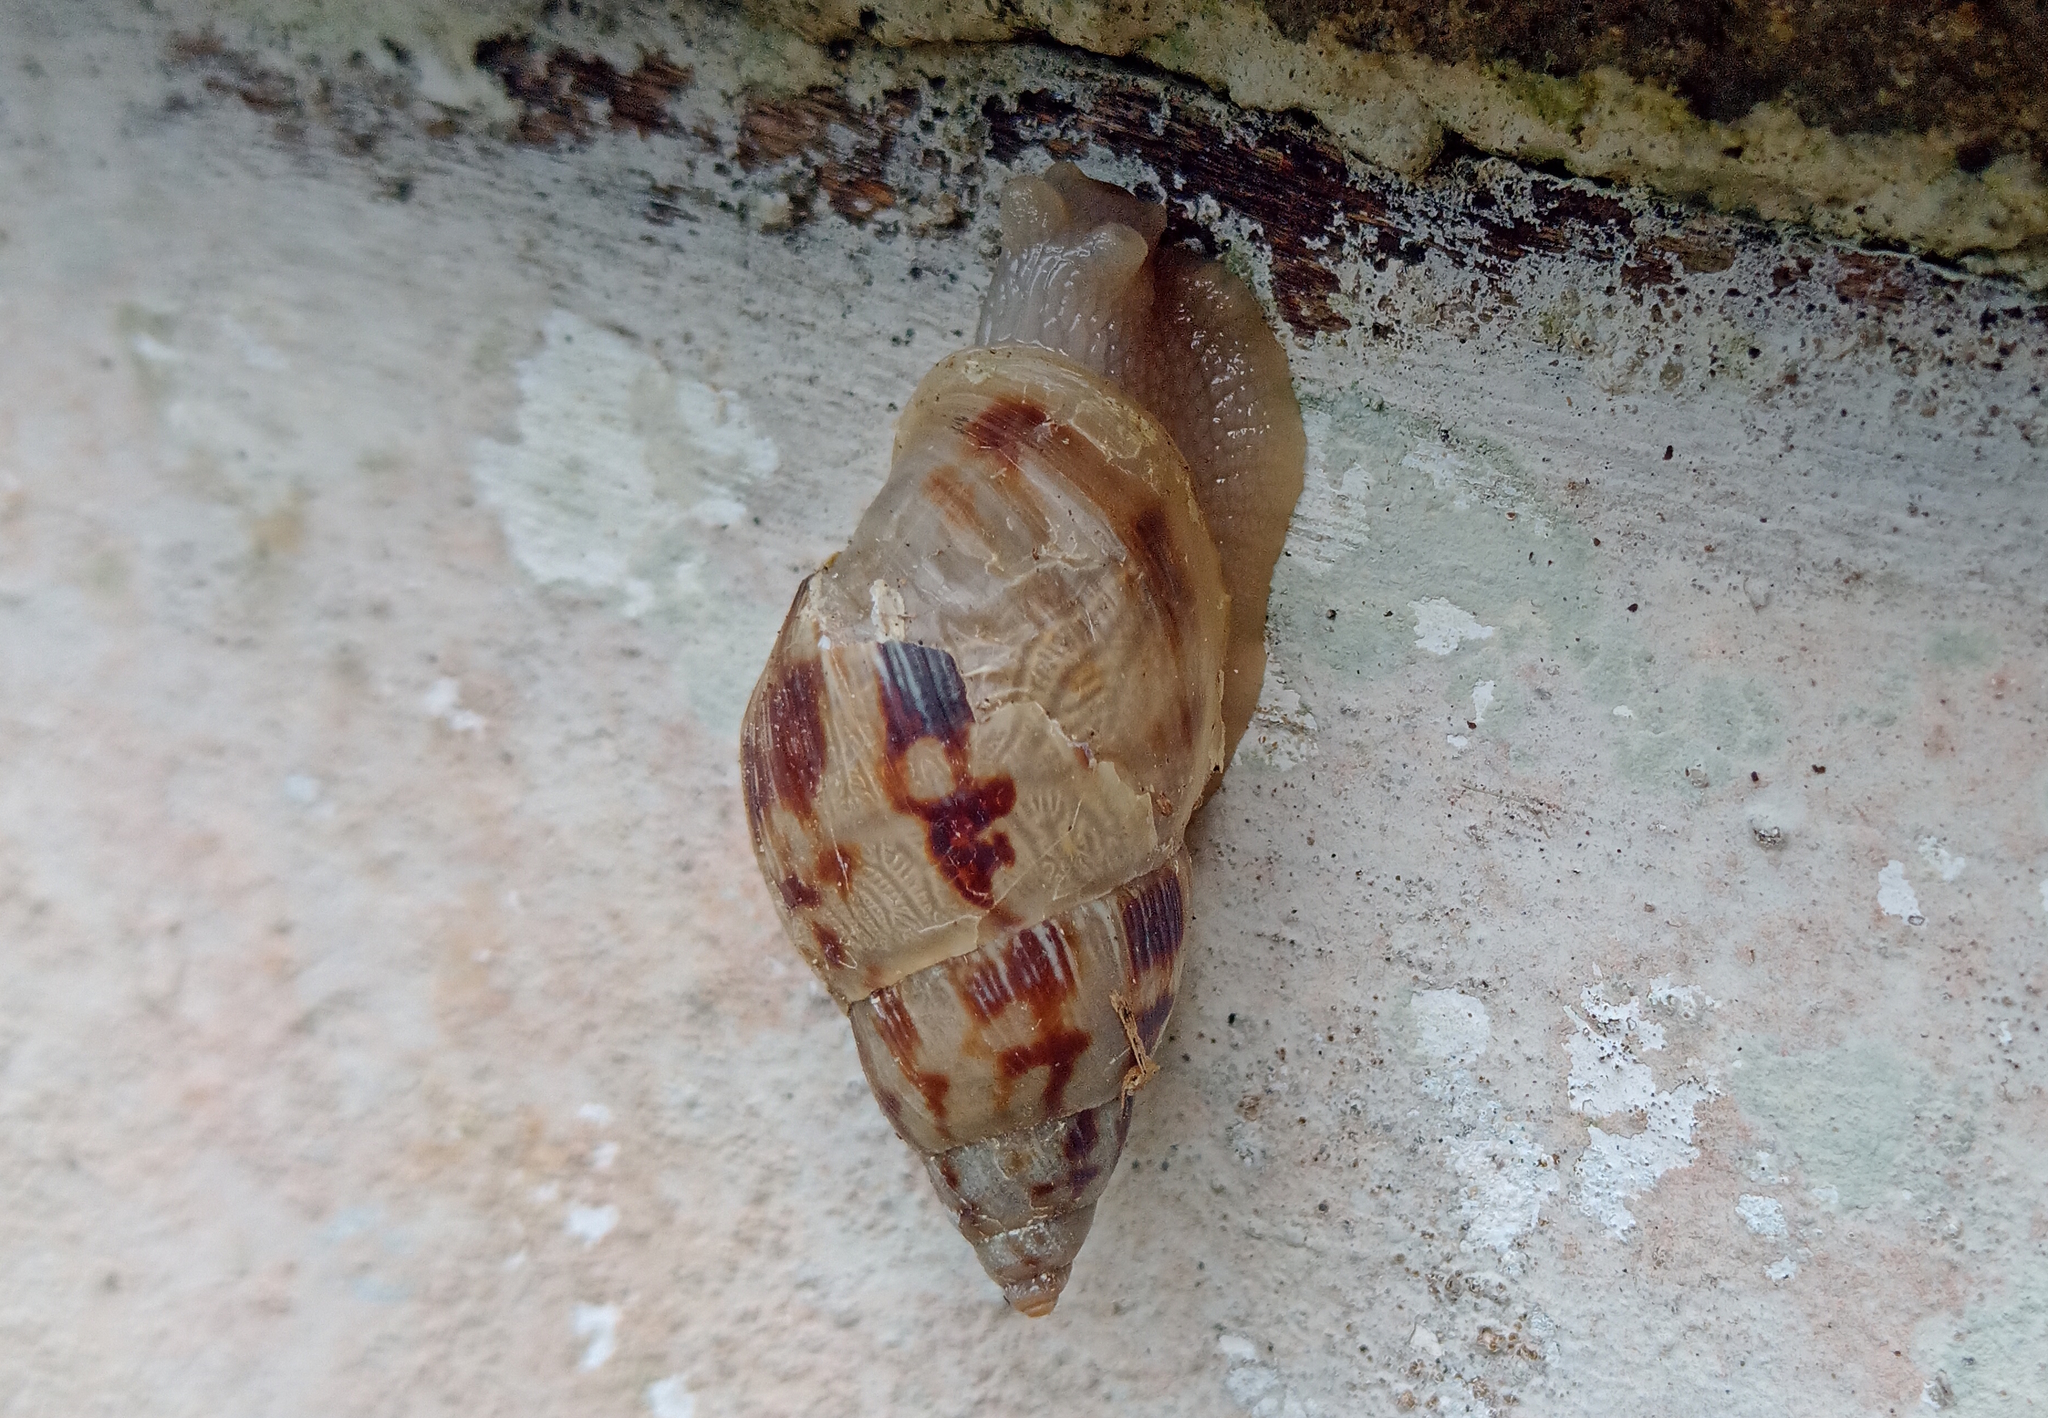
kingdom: Animalia
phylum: Mollusca
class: Gastropoda
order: Stylommatophora
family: Bulimulidae
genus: Drymaeus
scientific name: Drymaeus papyraceus
